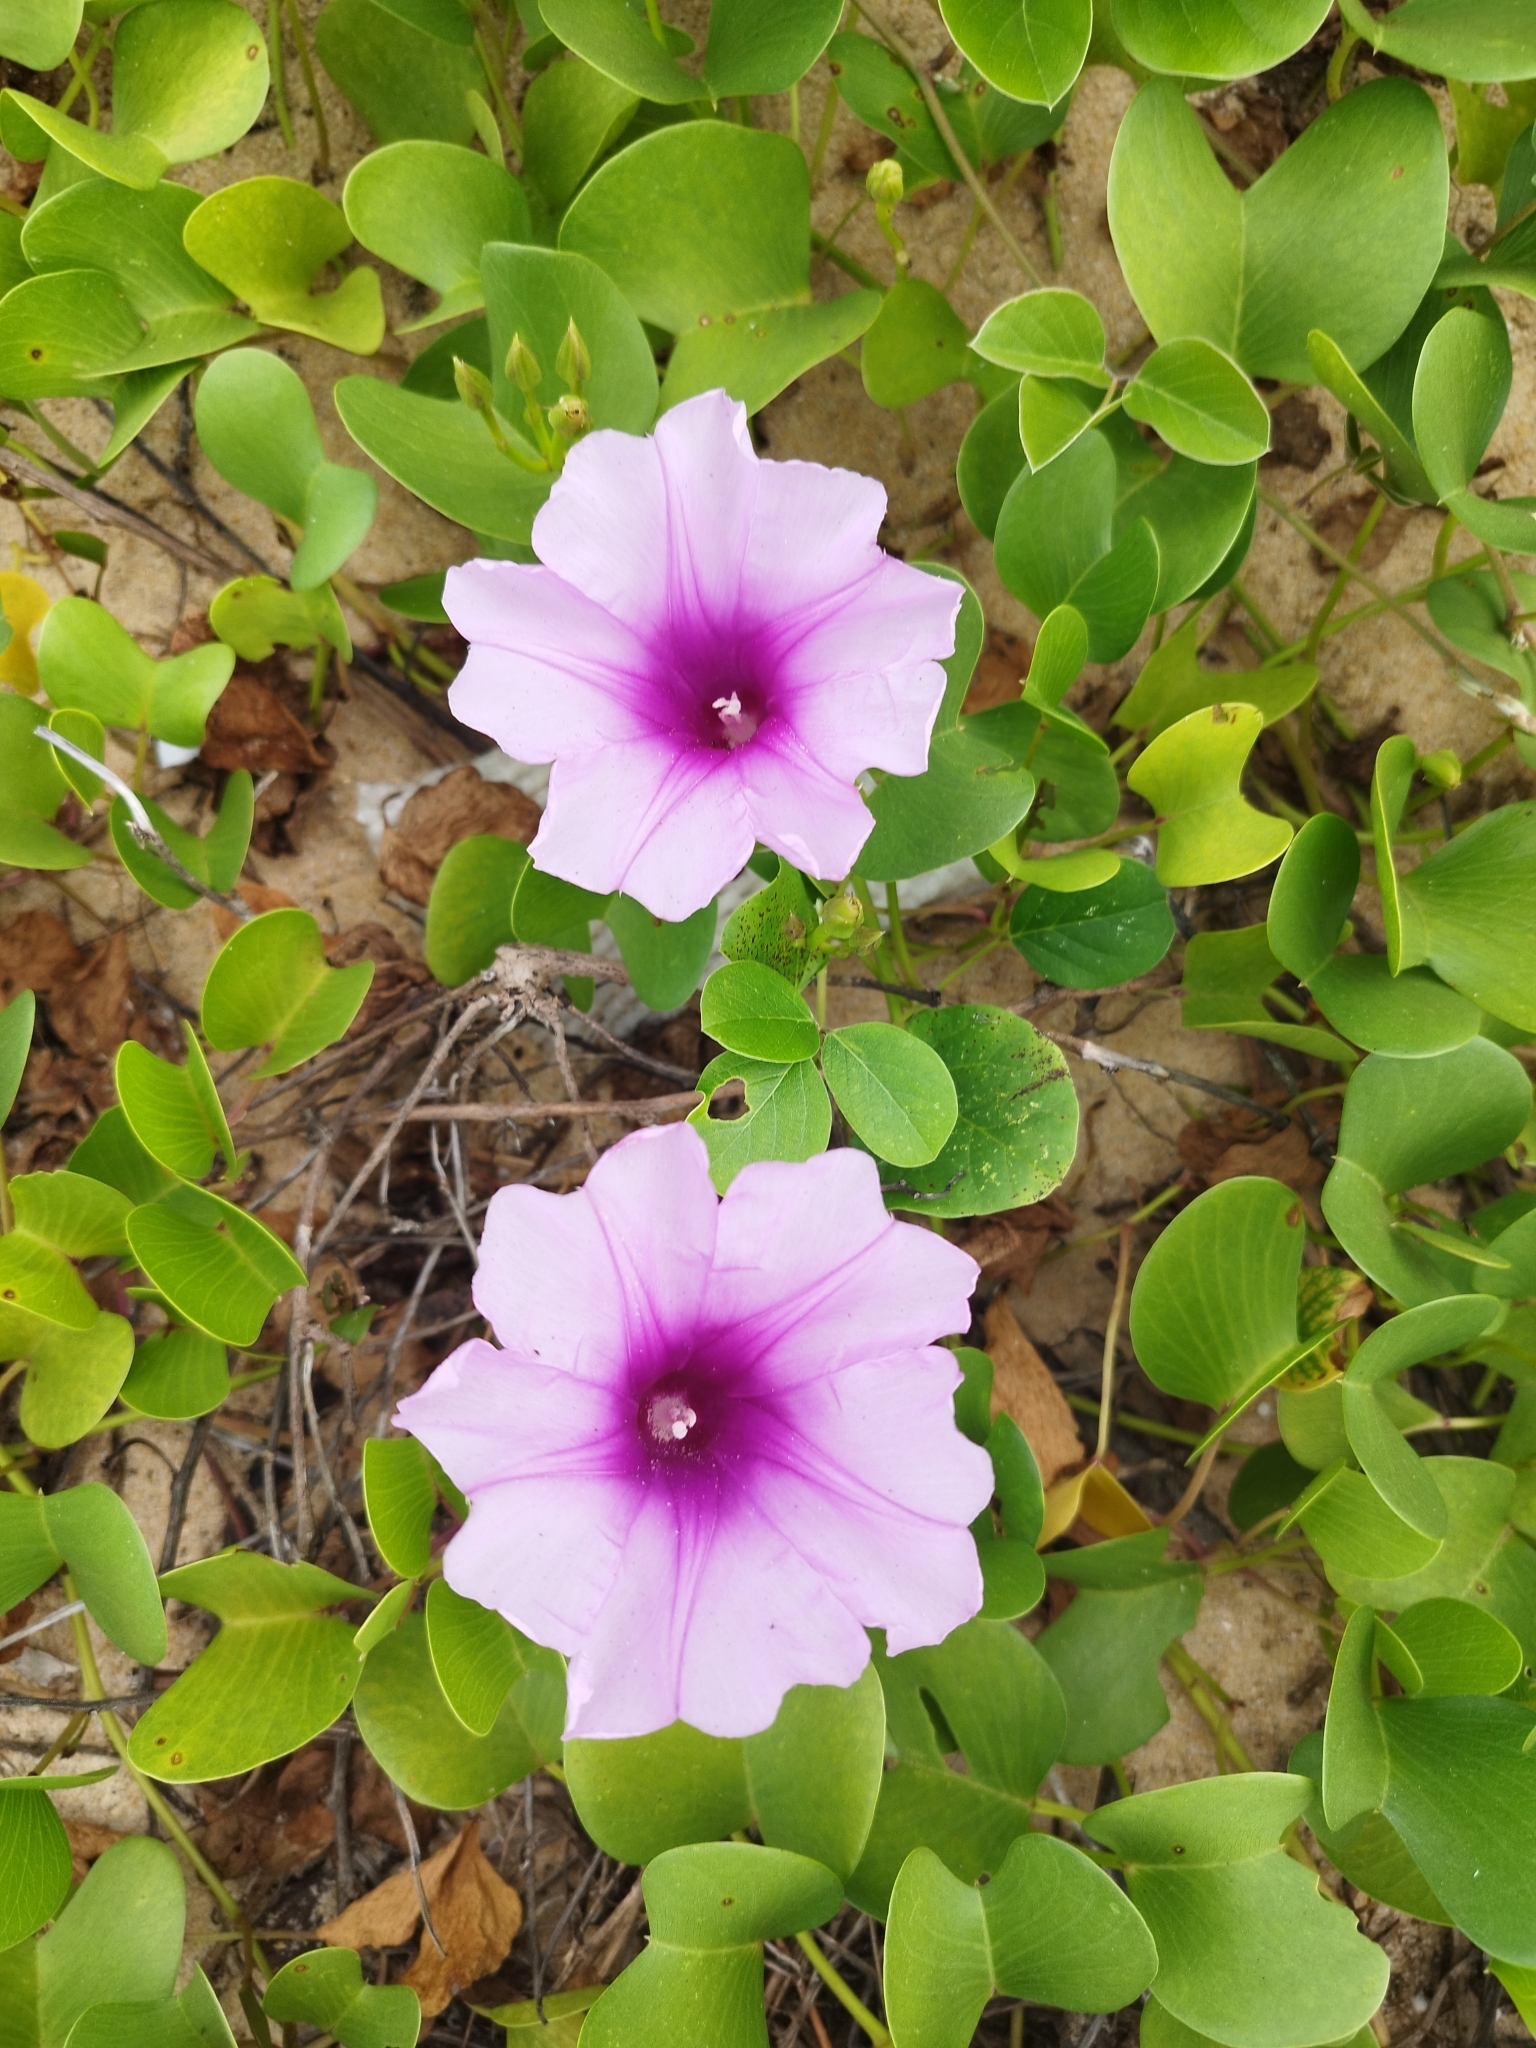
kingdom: Plantae
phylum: Tracheophyta
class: Magnoliopsida
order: Solanales
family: Convolvulaceae
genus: Ipomoea
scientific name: Ipomoea pes-caprae
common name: Beach morning glory
